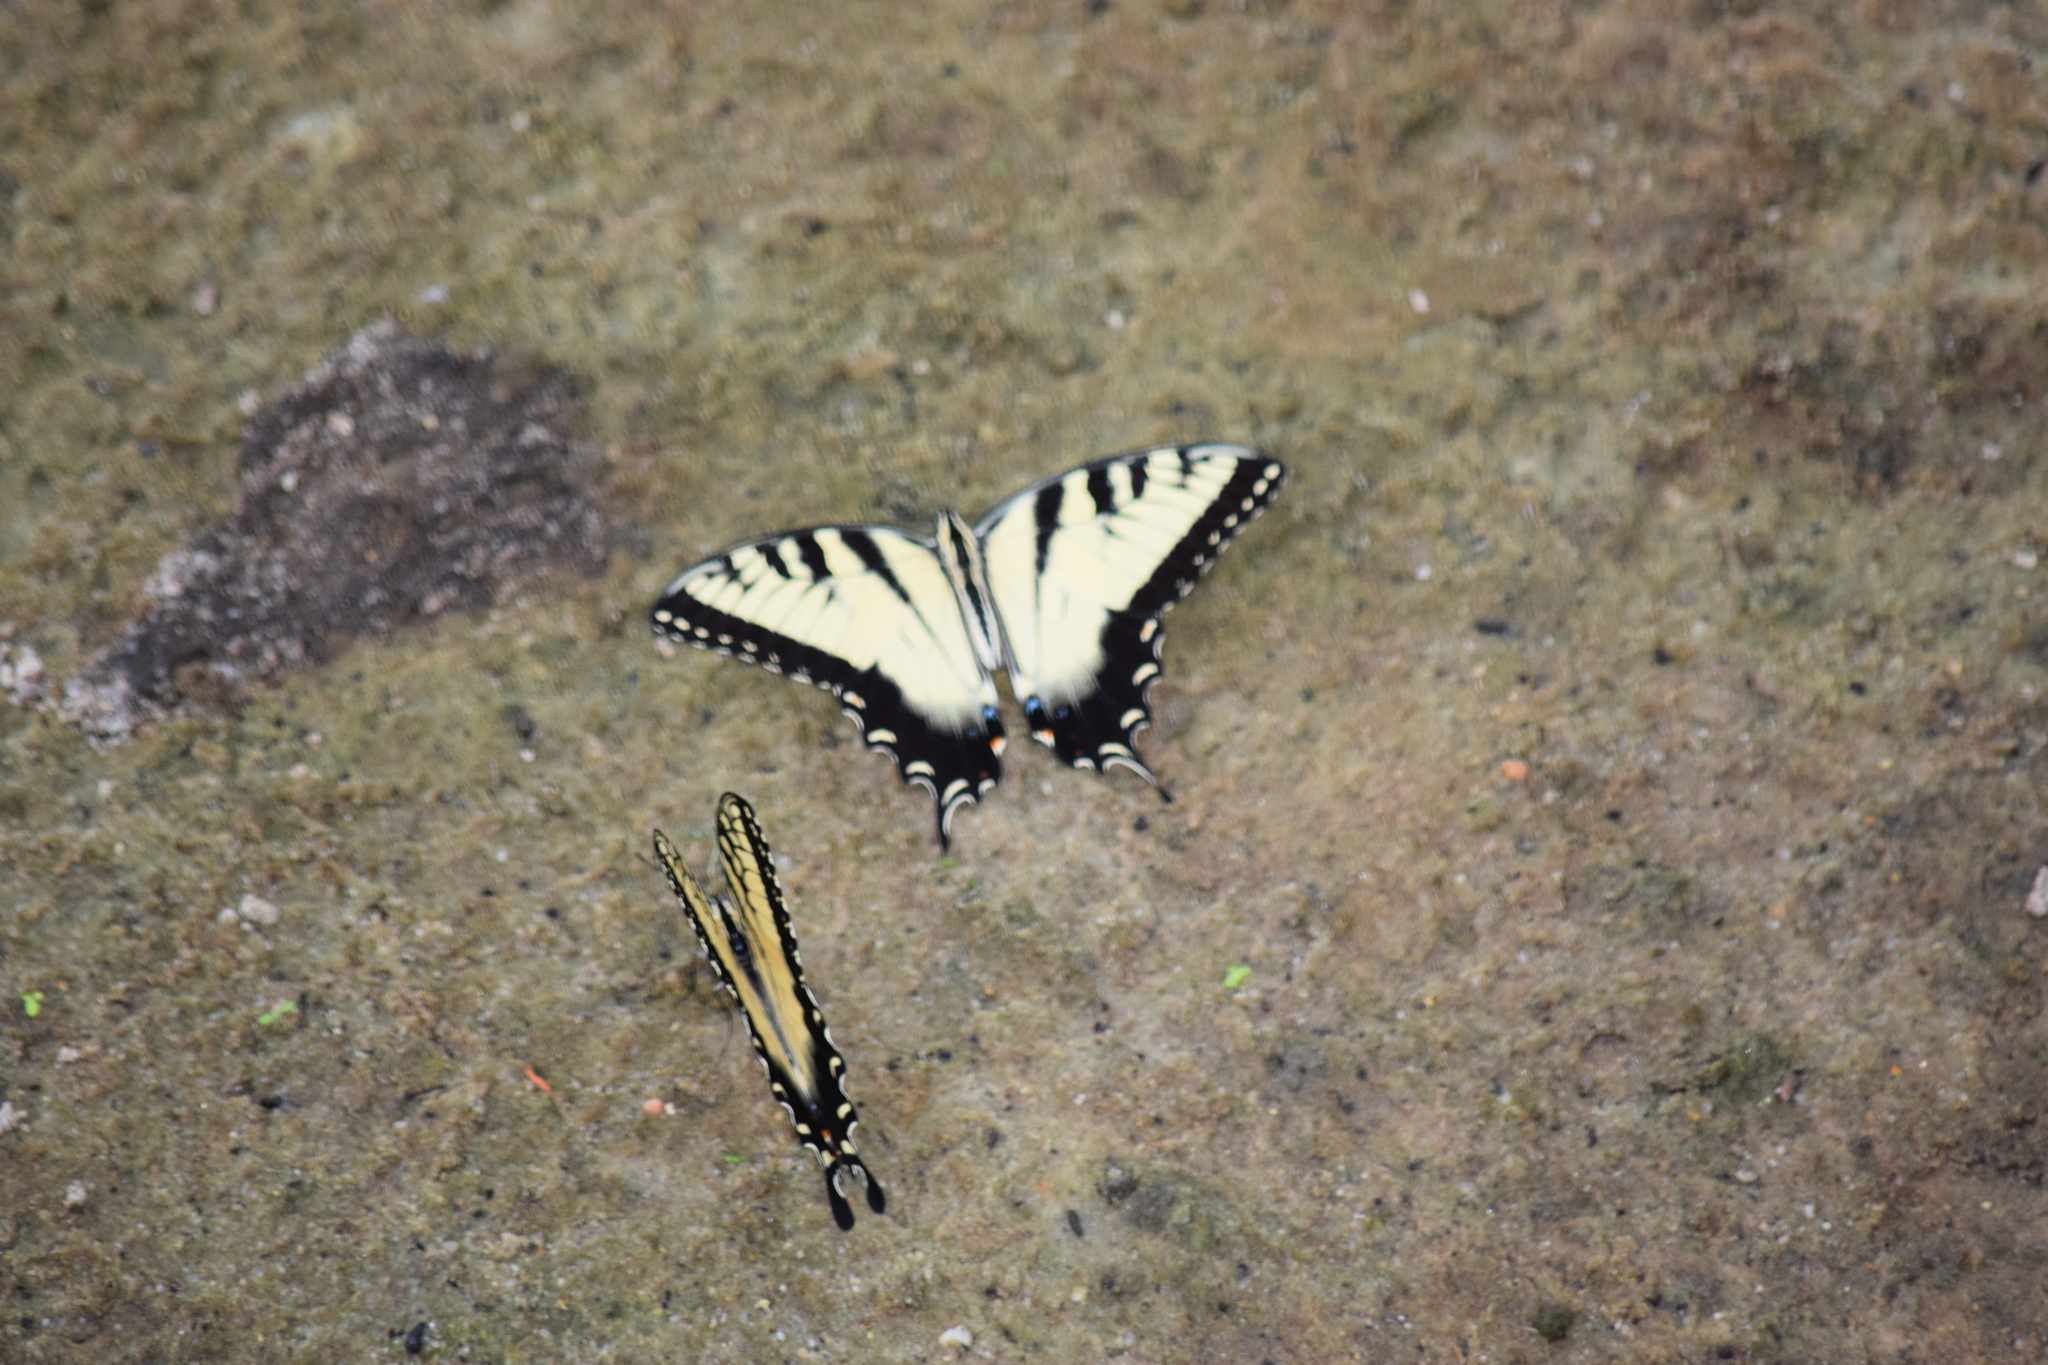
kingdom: Animalia
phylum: Arthropoda
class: Insecta
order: Lepidoptera
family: Papilionidae
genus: Papilio
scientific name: Papilio glaucus
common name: Tiger swallowtail
